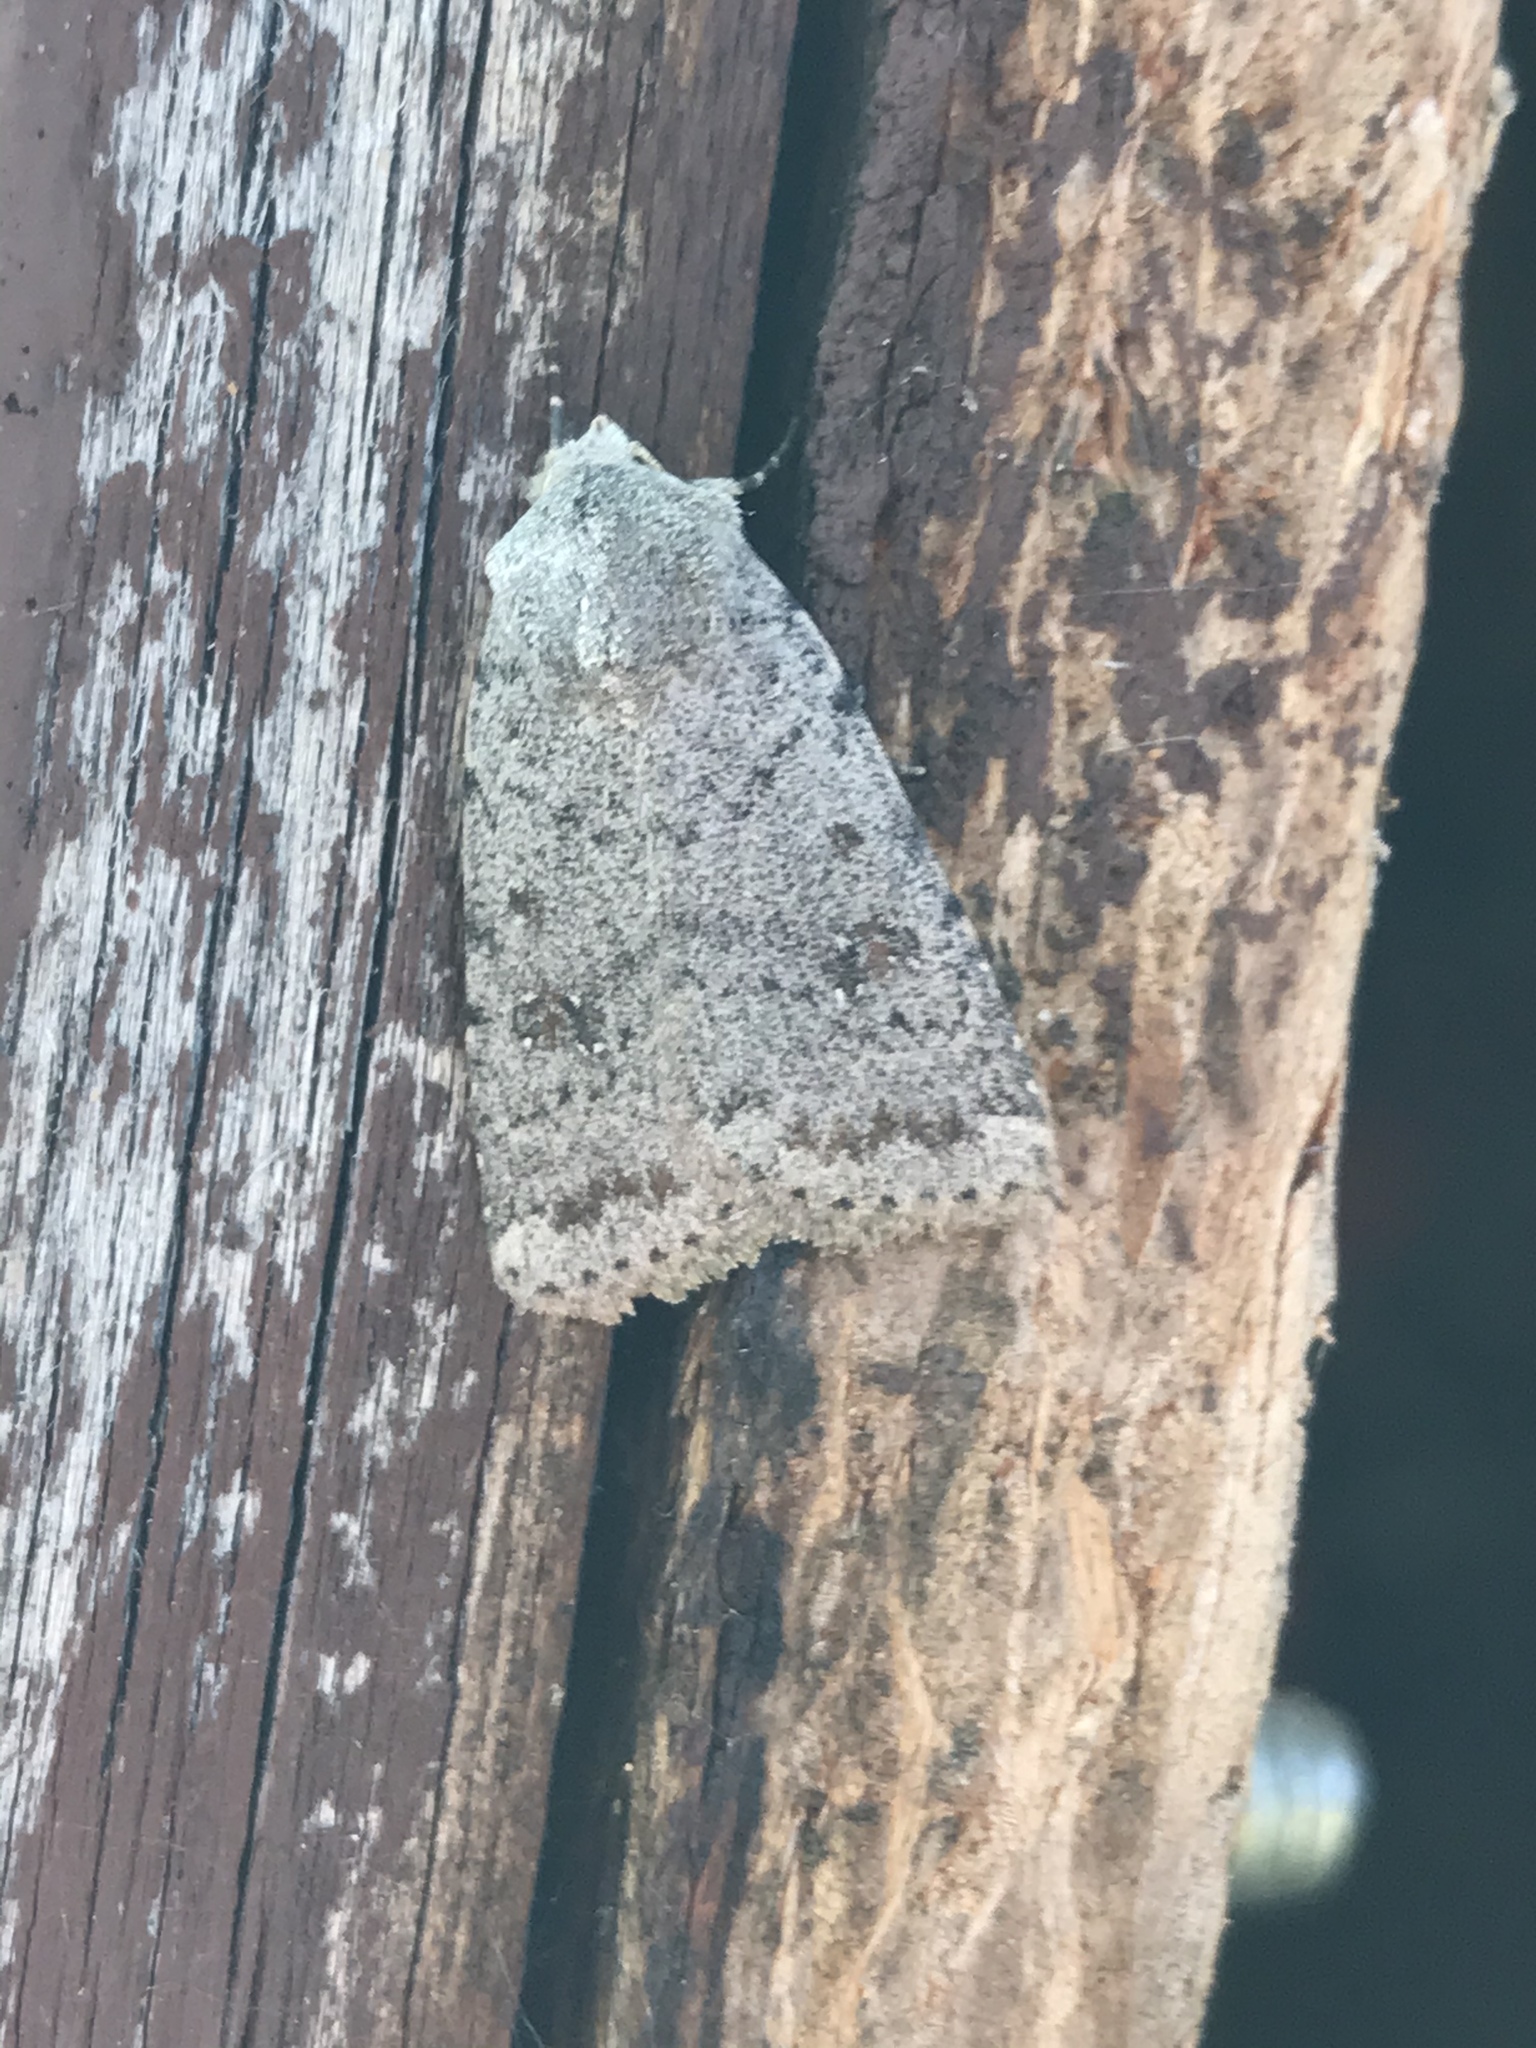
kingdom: Animalia
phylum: Arthropoda
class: Insecta
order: Lepidoptera
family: Noctuidae
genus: Caradrina
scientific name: Caradrina multifera
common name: Speckled rustic
